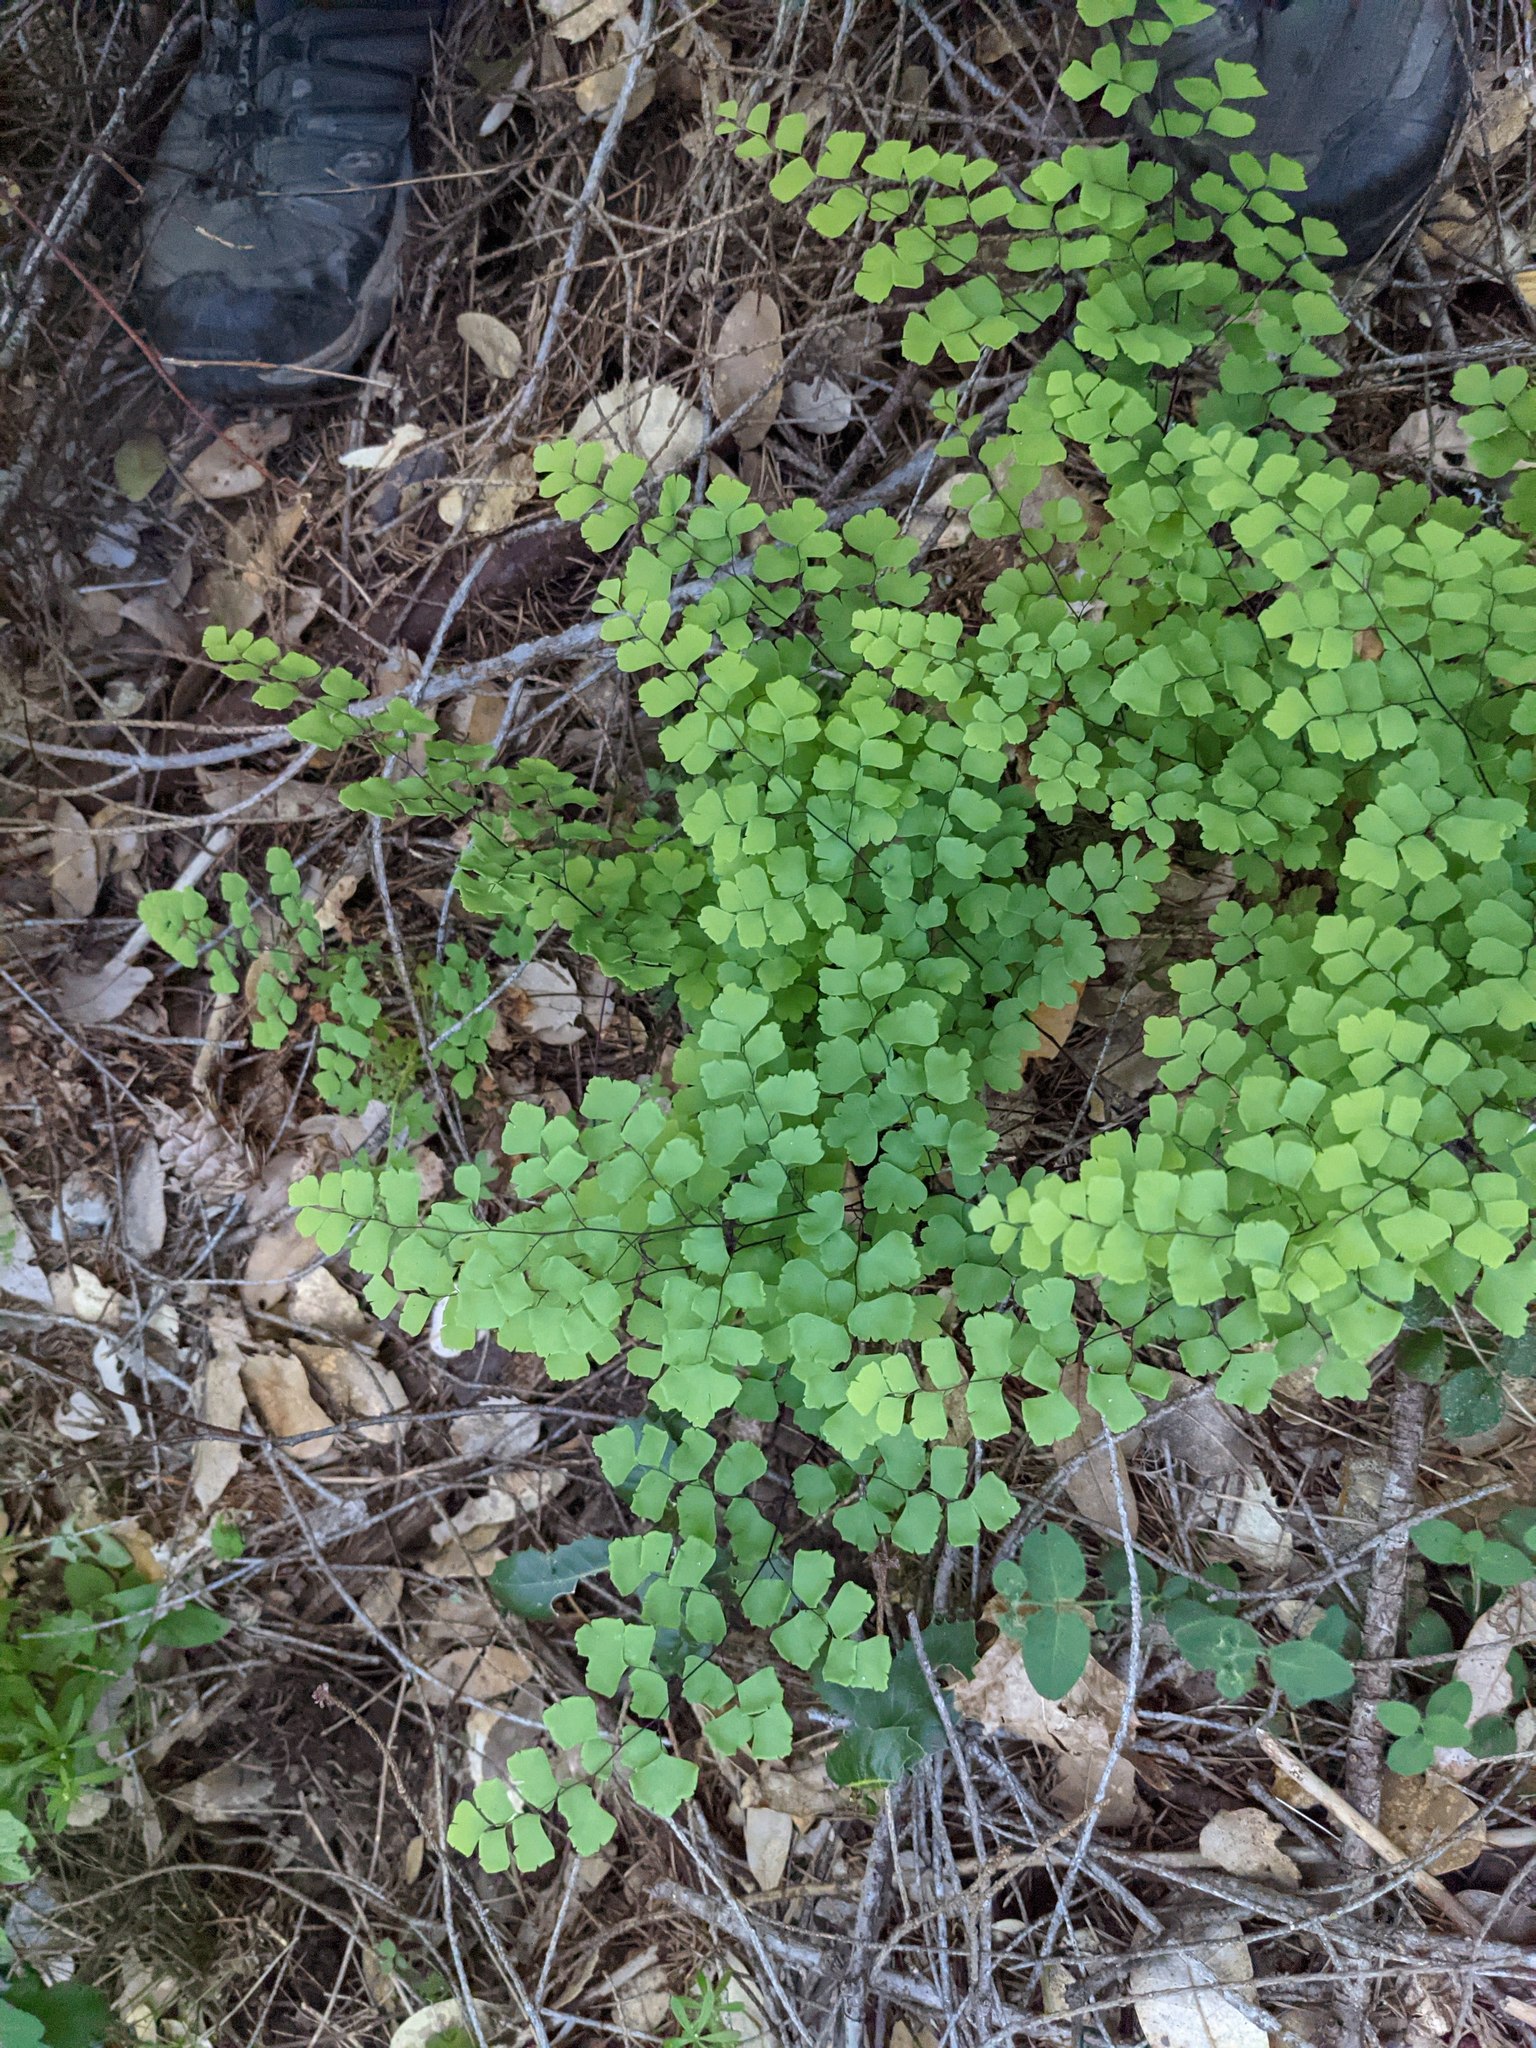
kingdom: Plantae
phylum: Tracheophyta
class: Polypodiopsida
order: Polypodiales
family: Pteridaceae
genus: Adiantum
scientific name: Adiantum shastense
